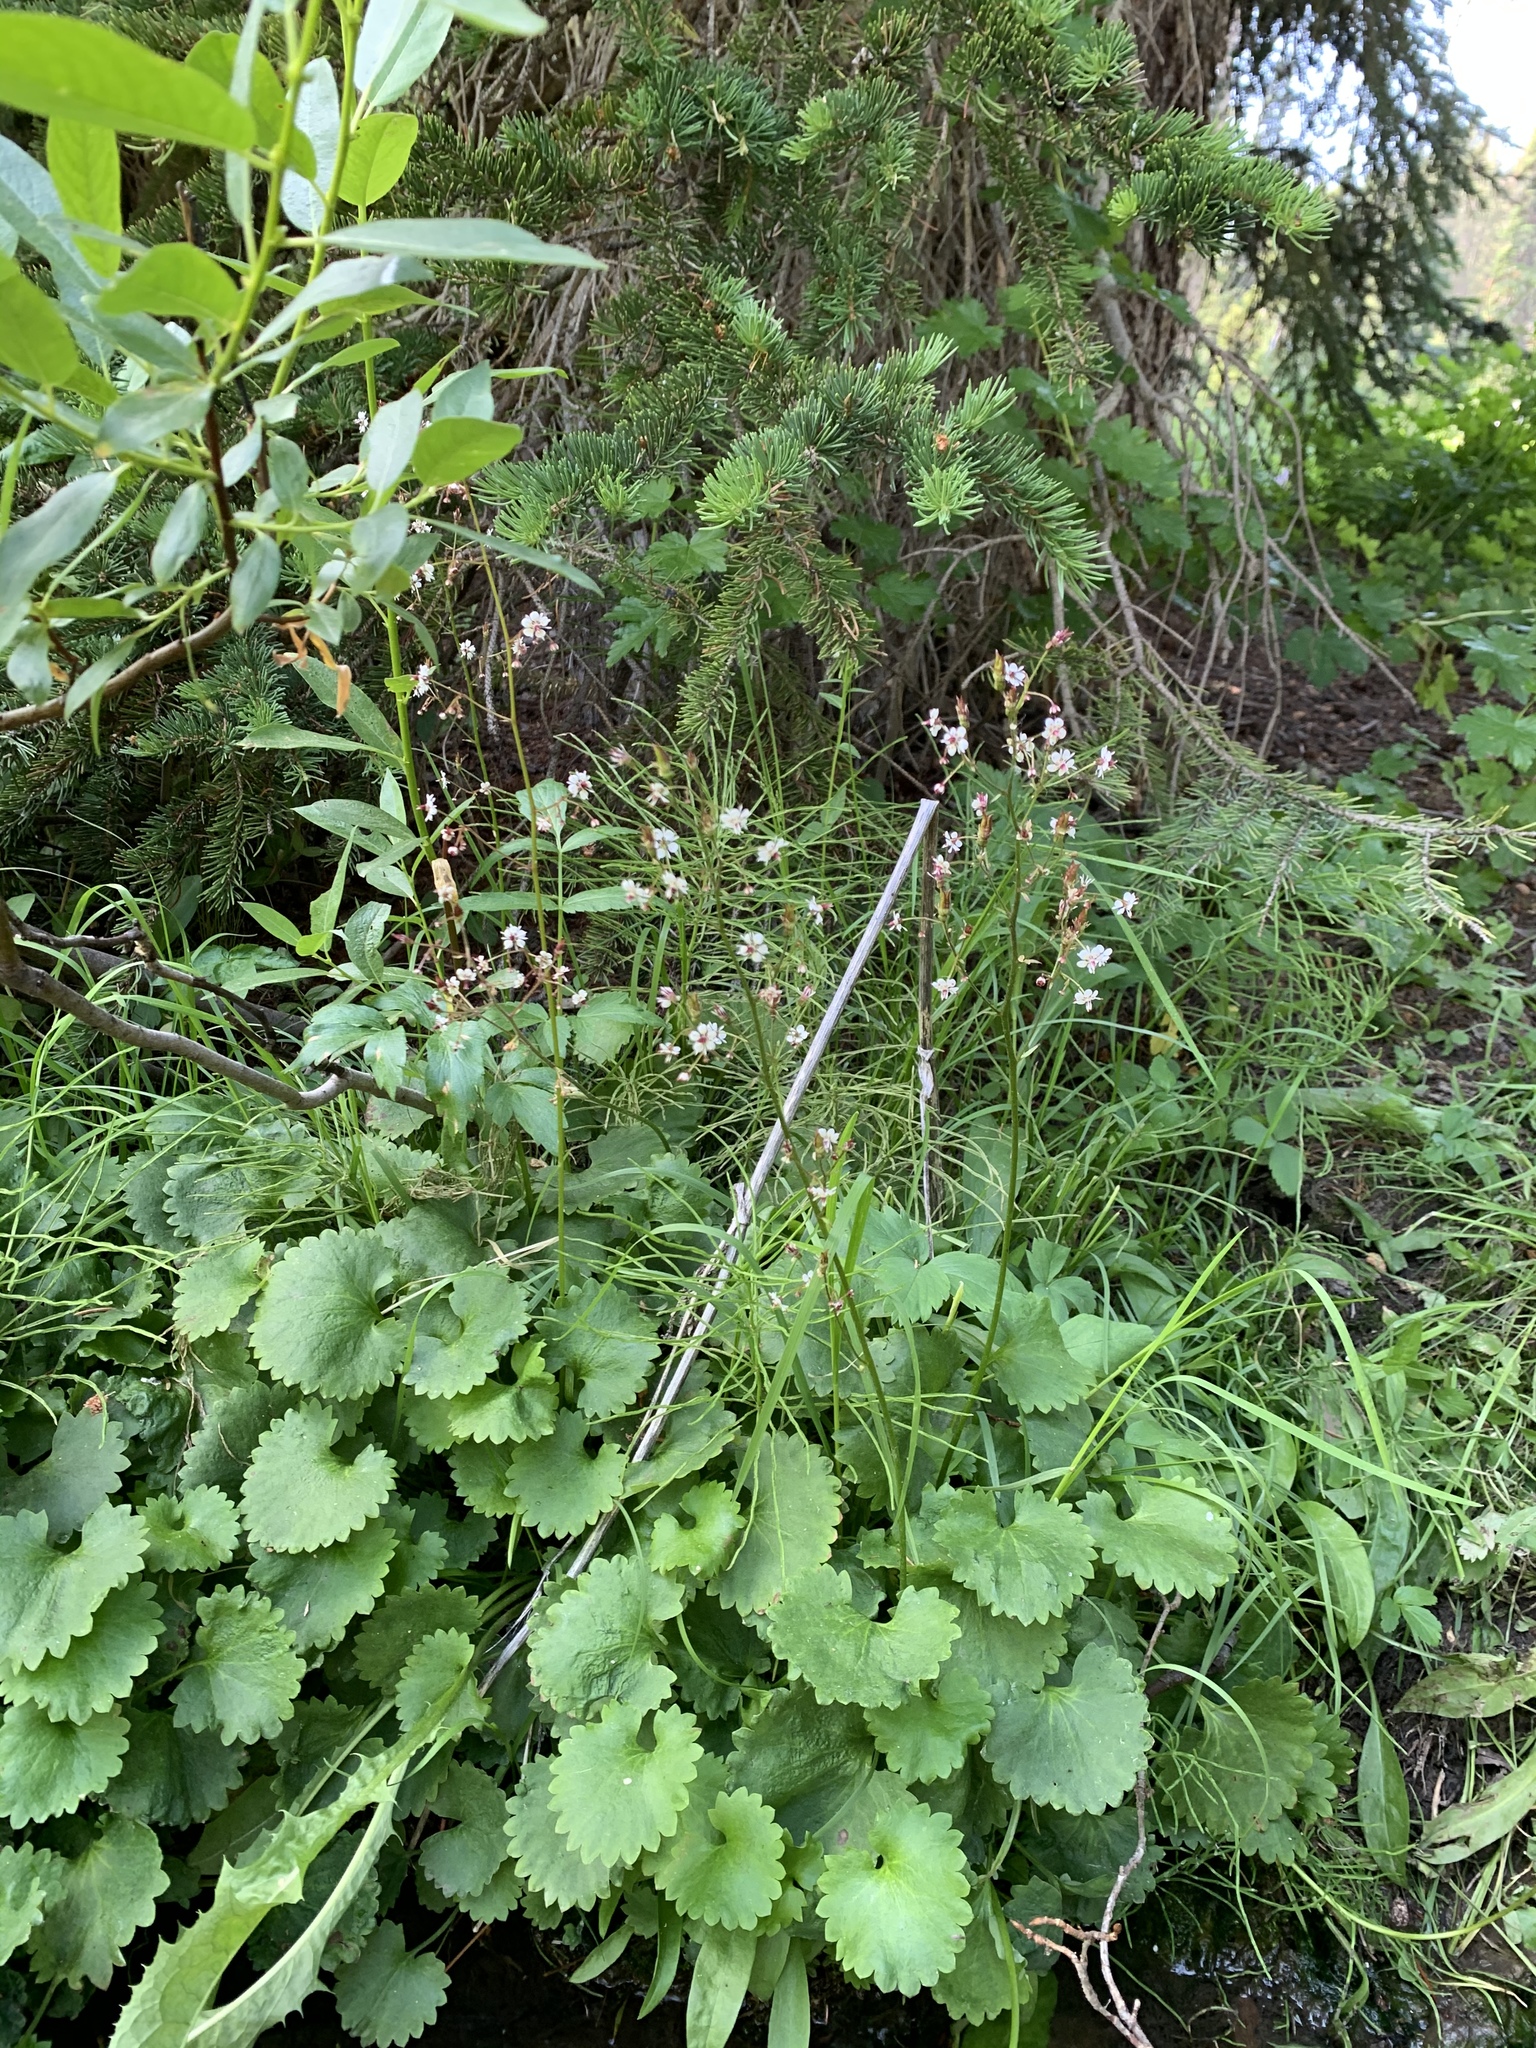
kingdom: Plantae
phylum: Tracheophyta
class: Magnoliopsida
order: Saxifragales
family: Saxifragaceae
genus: Micranthes
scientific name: Micranthes odontoloma
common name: Brook saxifrage
